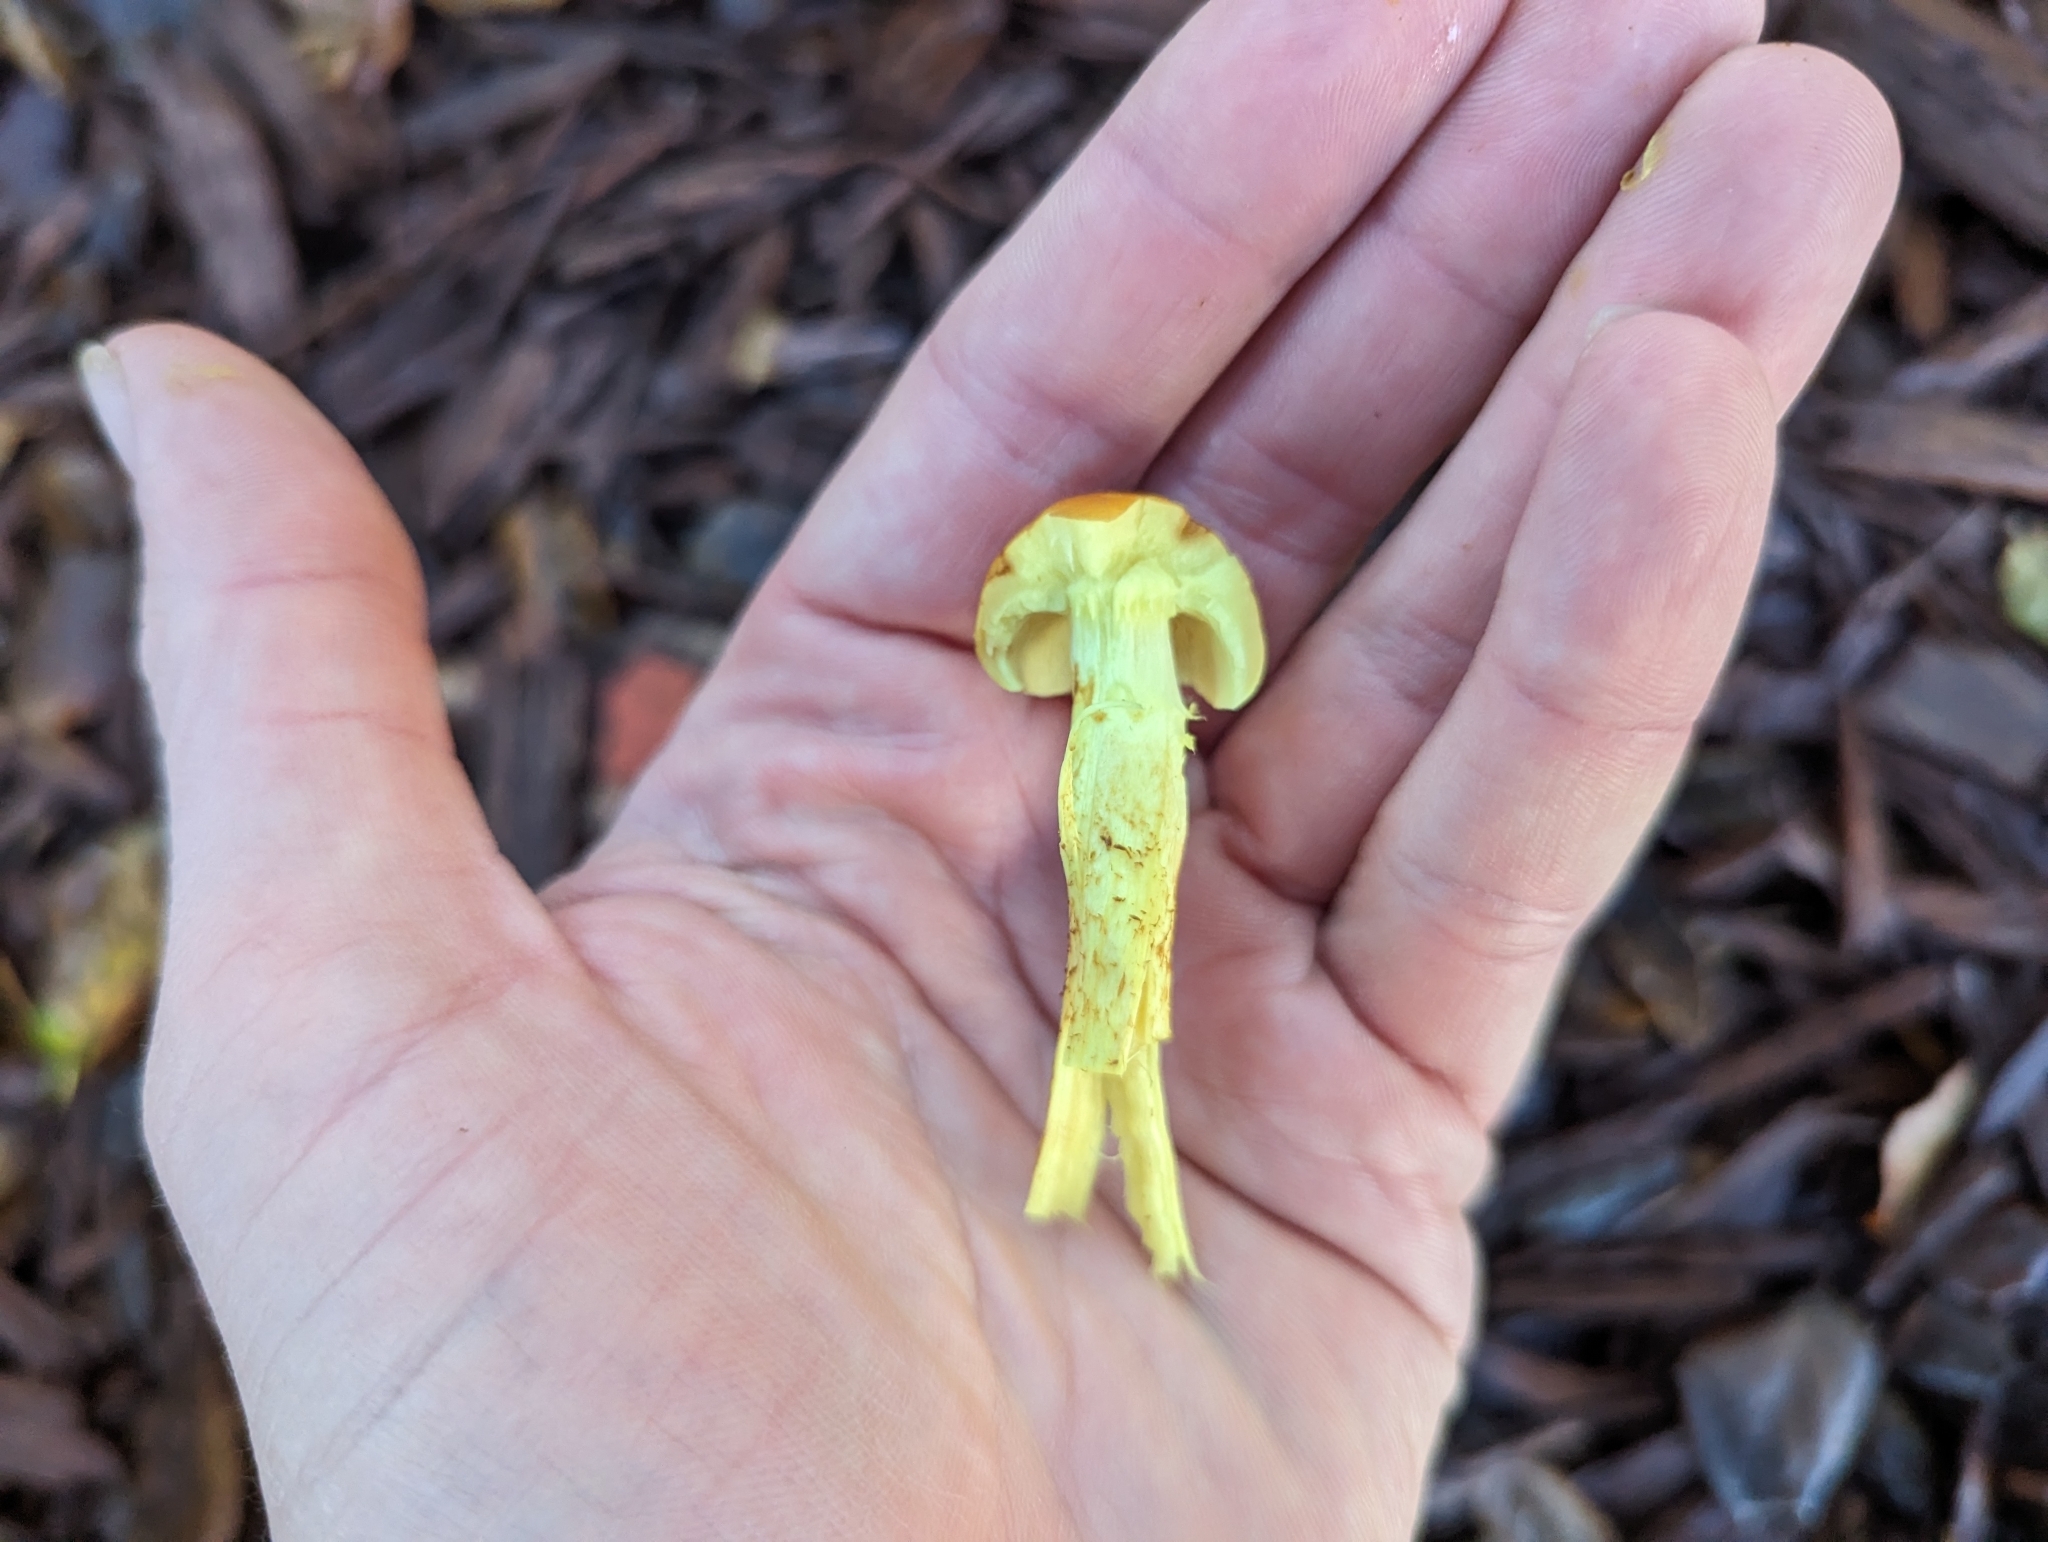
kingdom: Fungi
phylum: Basidiomycota
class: Agaricomycetes
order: Agaricales
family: Strophariaceae
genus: Hypholoma
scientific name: Hypholoma fasciculare
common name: Sulphur tuft
